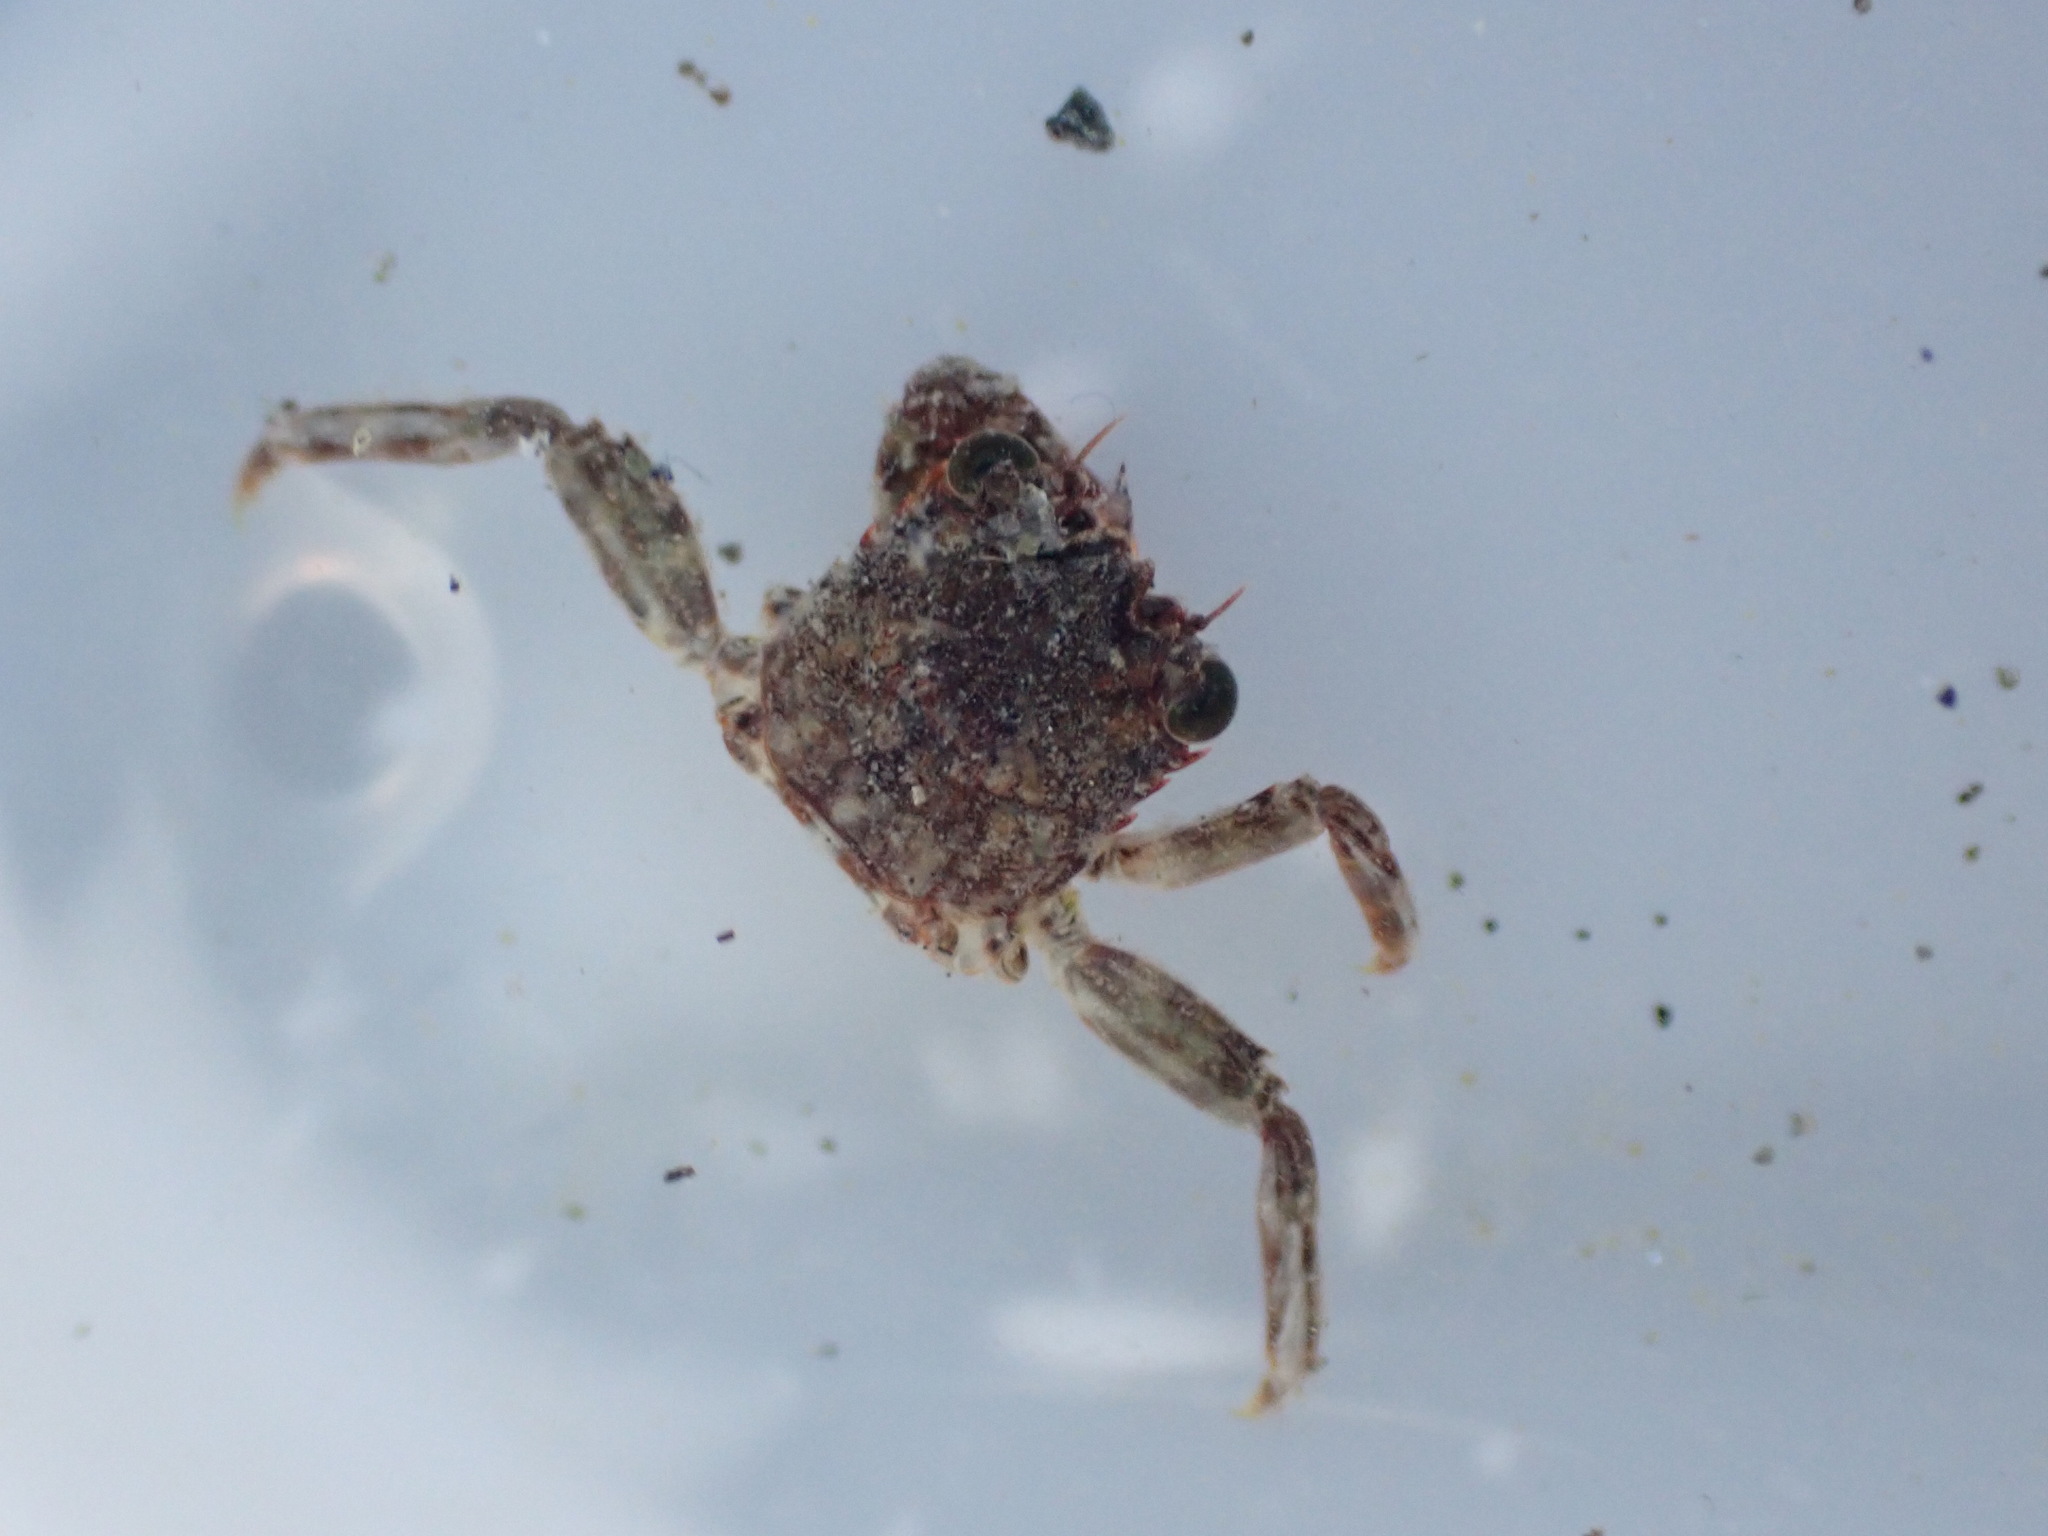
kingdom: Animalia
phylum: Arthropoda
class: Malacostraca
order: Decapoda
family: Plagusiidae
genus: Guinusia
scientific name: Guinusia chabrus
